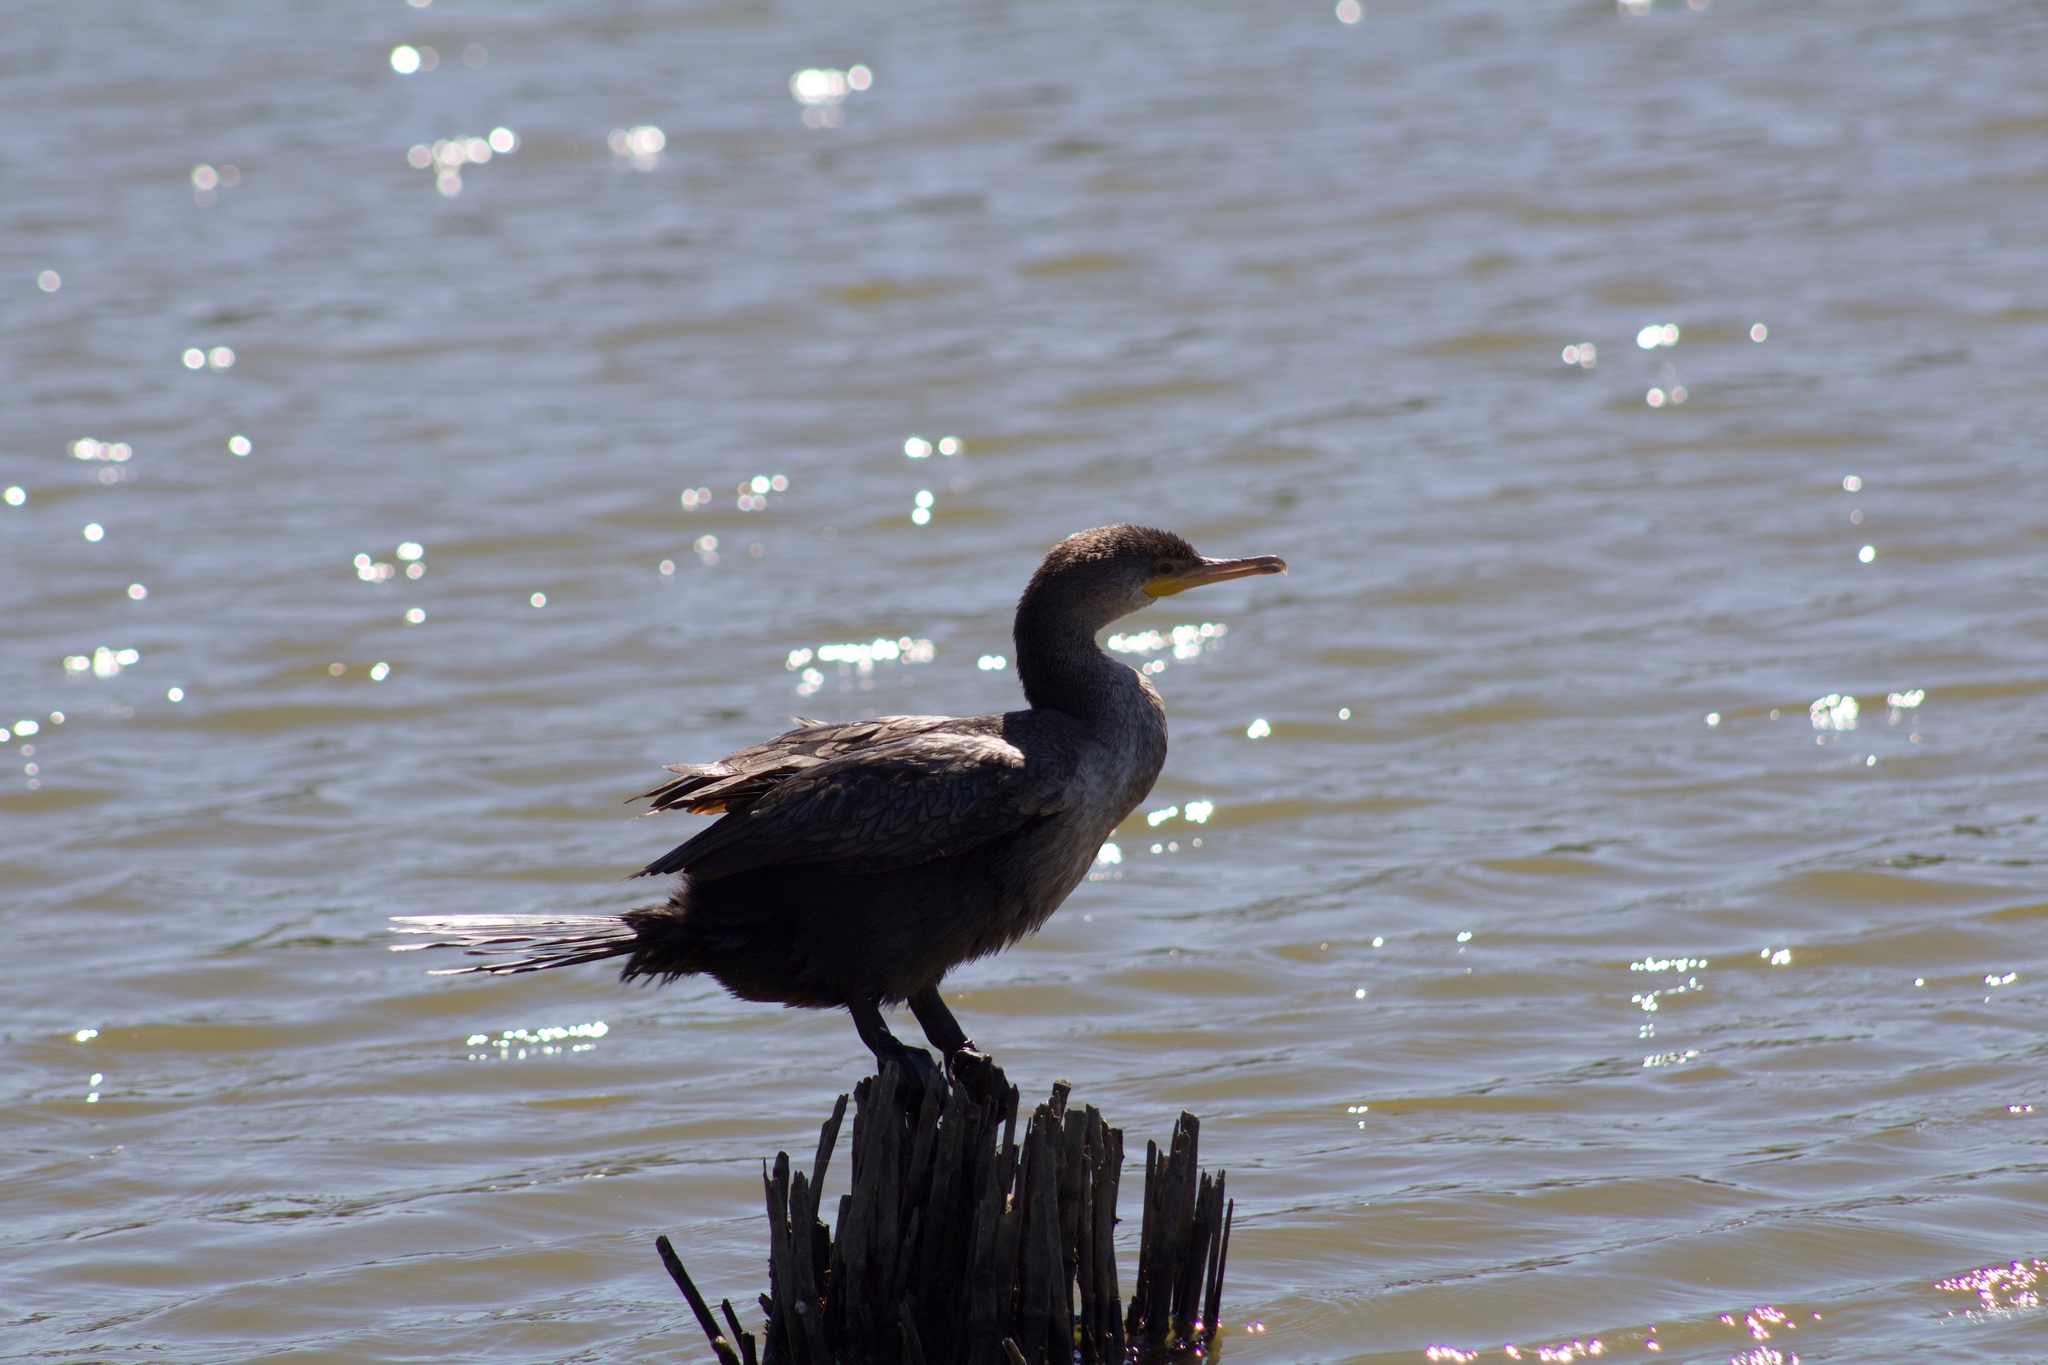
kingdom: Animalia
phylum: Chordata
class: Aves
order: Suliformes
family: Phalacrocoracidae
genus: Phalacrocorax
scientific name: Phalacrocorax auritus
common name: Double-crested cormorant
